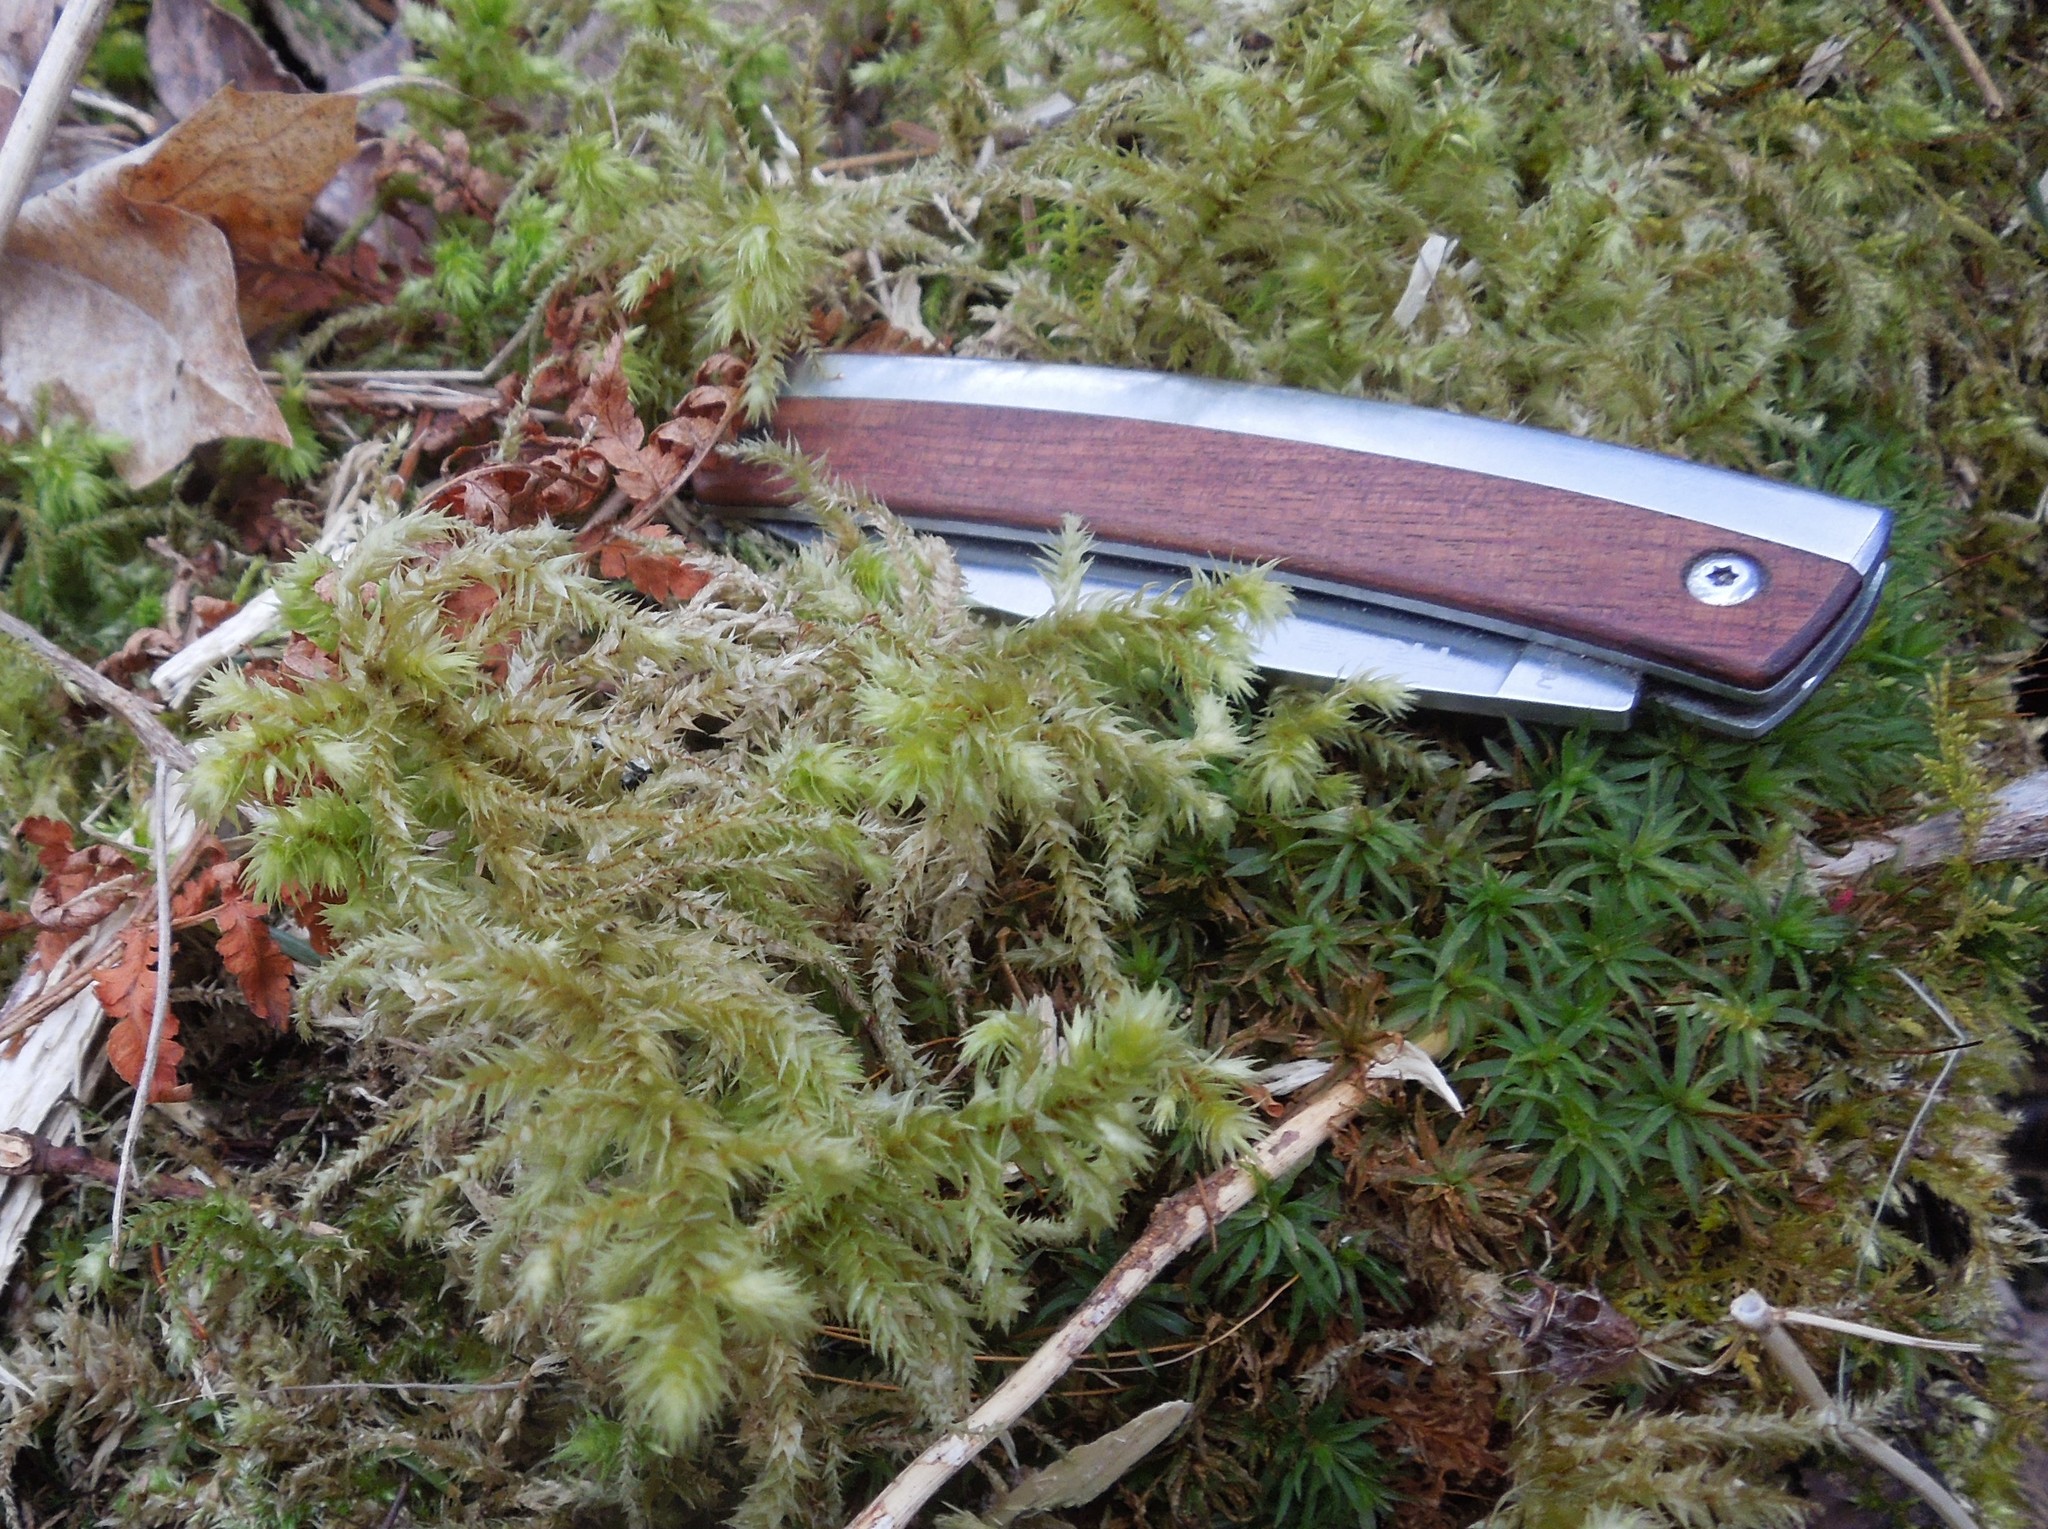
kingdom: Plantae
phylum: Bryophyta
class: Bryopsida
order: Hypnales
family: Hylocomiaceae
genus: Hylocomiadelphus
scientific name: Hylocomiadelphus triquetrus
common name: Rough goose neck moss
